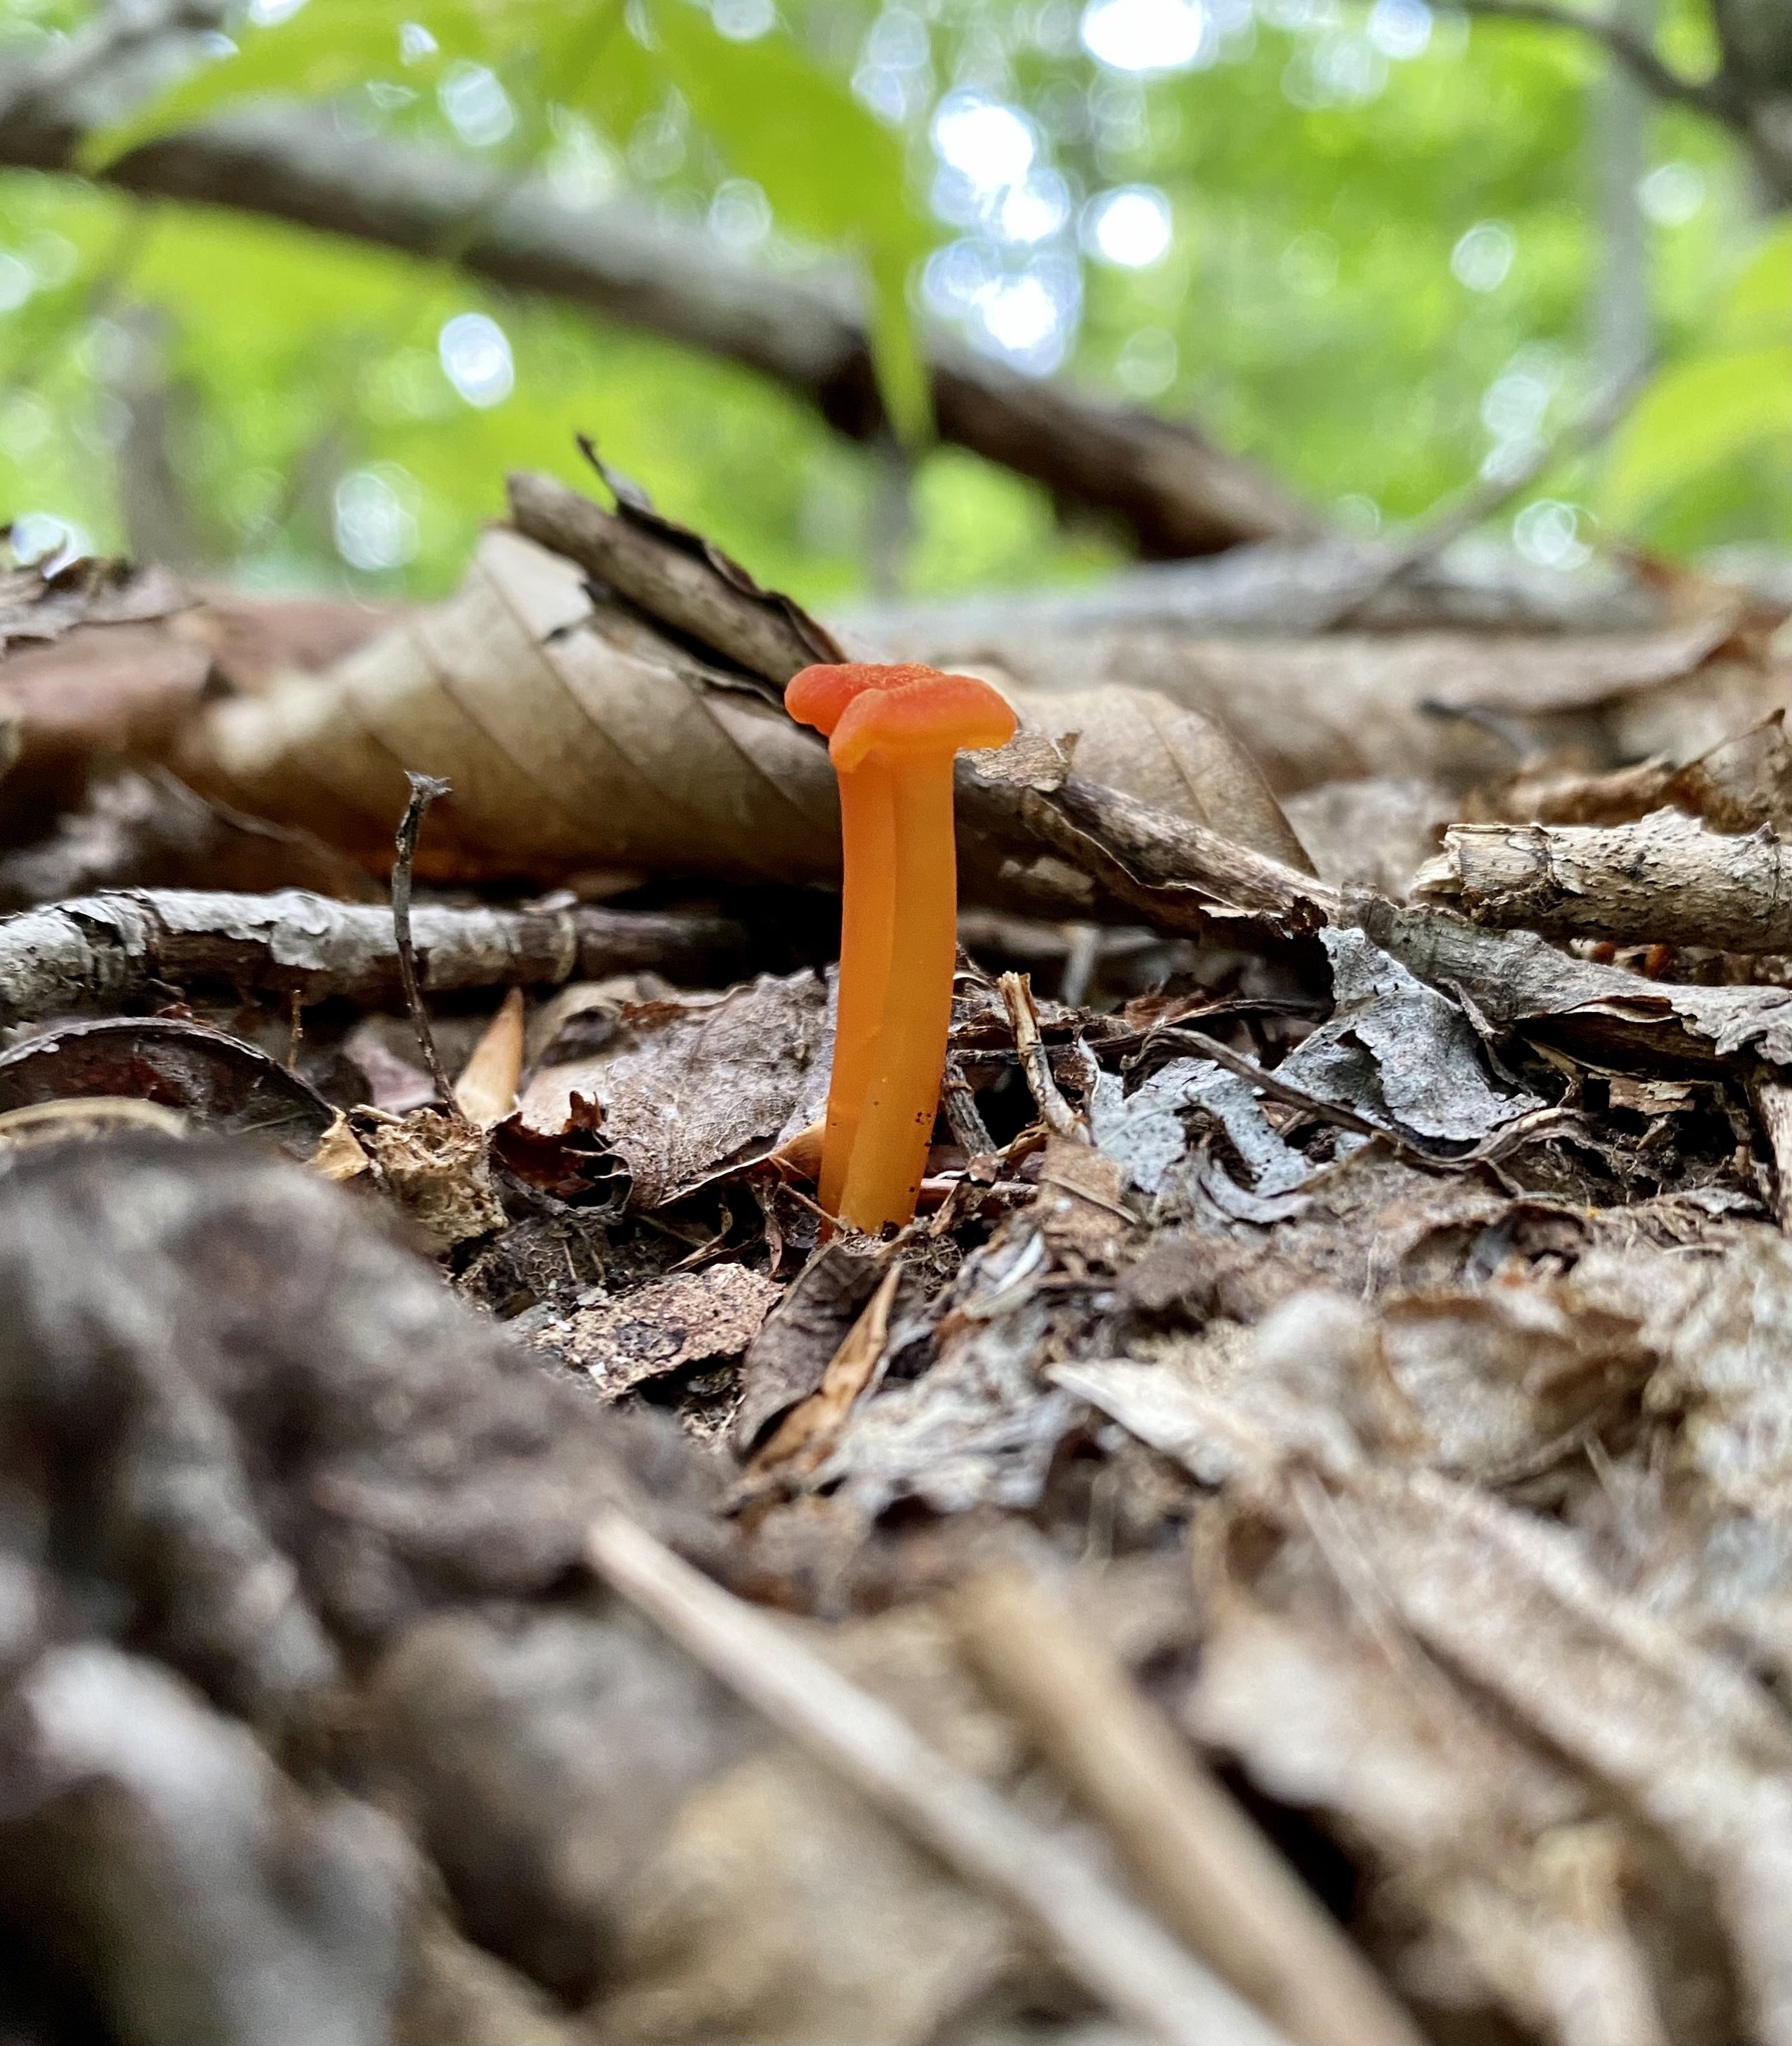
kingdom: Fungi
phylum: Basidiomycota
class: Agaricomycetes
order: Agaricales
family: Hygrophoraceae
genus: Hygrocybe
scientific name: Hygrocybe cantharellus
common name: Goblet waxcap
